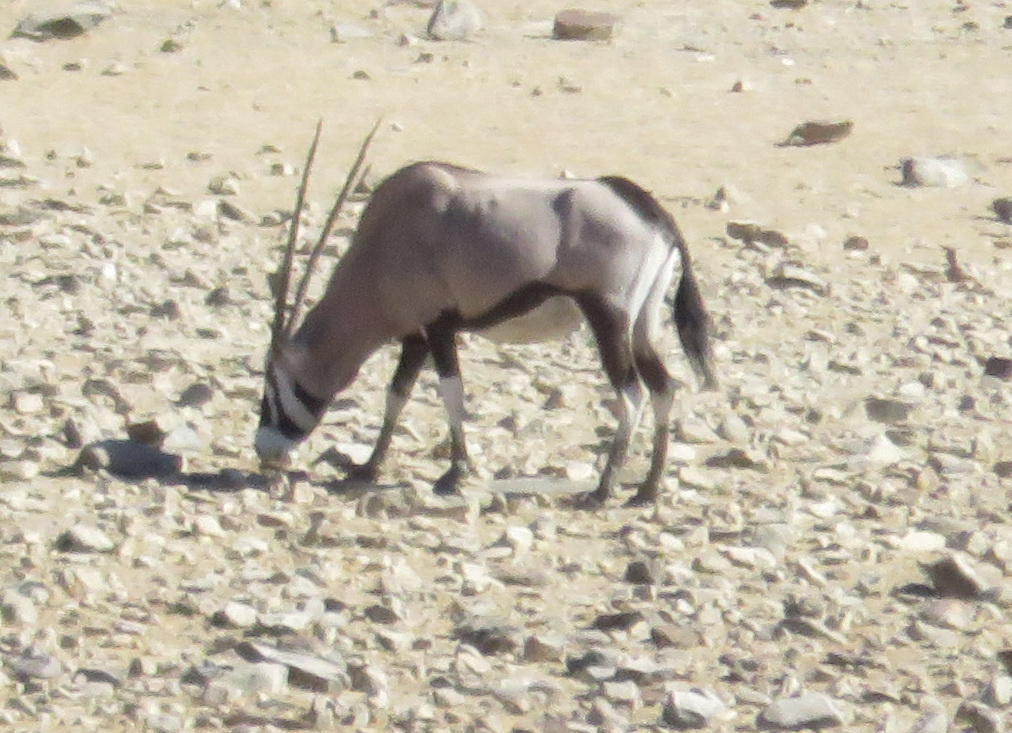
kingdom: Animalia
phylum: Chordata
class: Mammalia
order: Artiodactyla
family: Bovidae
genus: Oryx
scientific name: Oryx gazella
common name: Gemsbok
